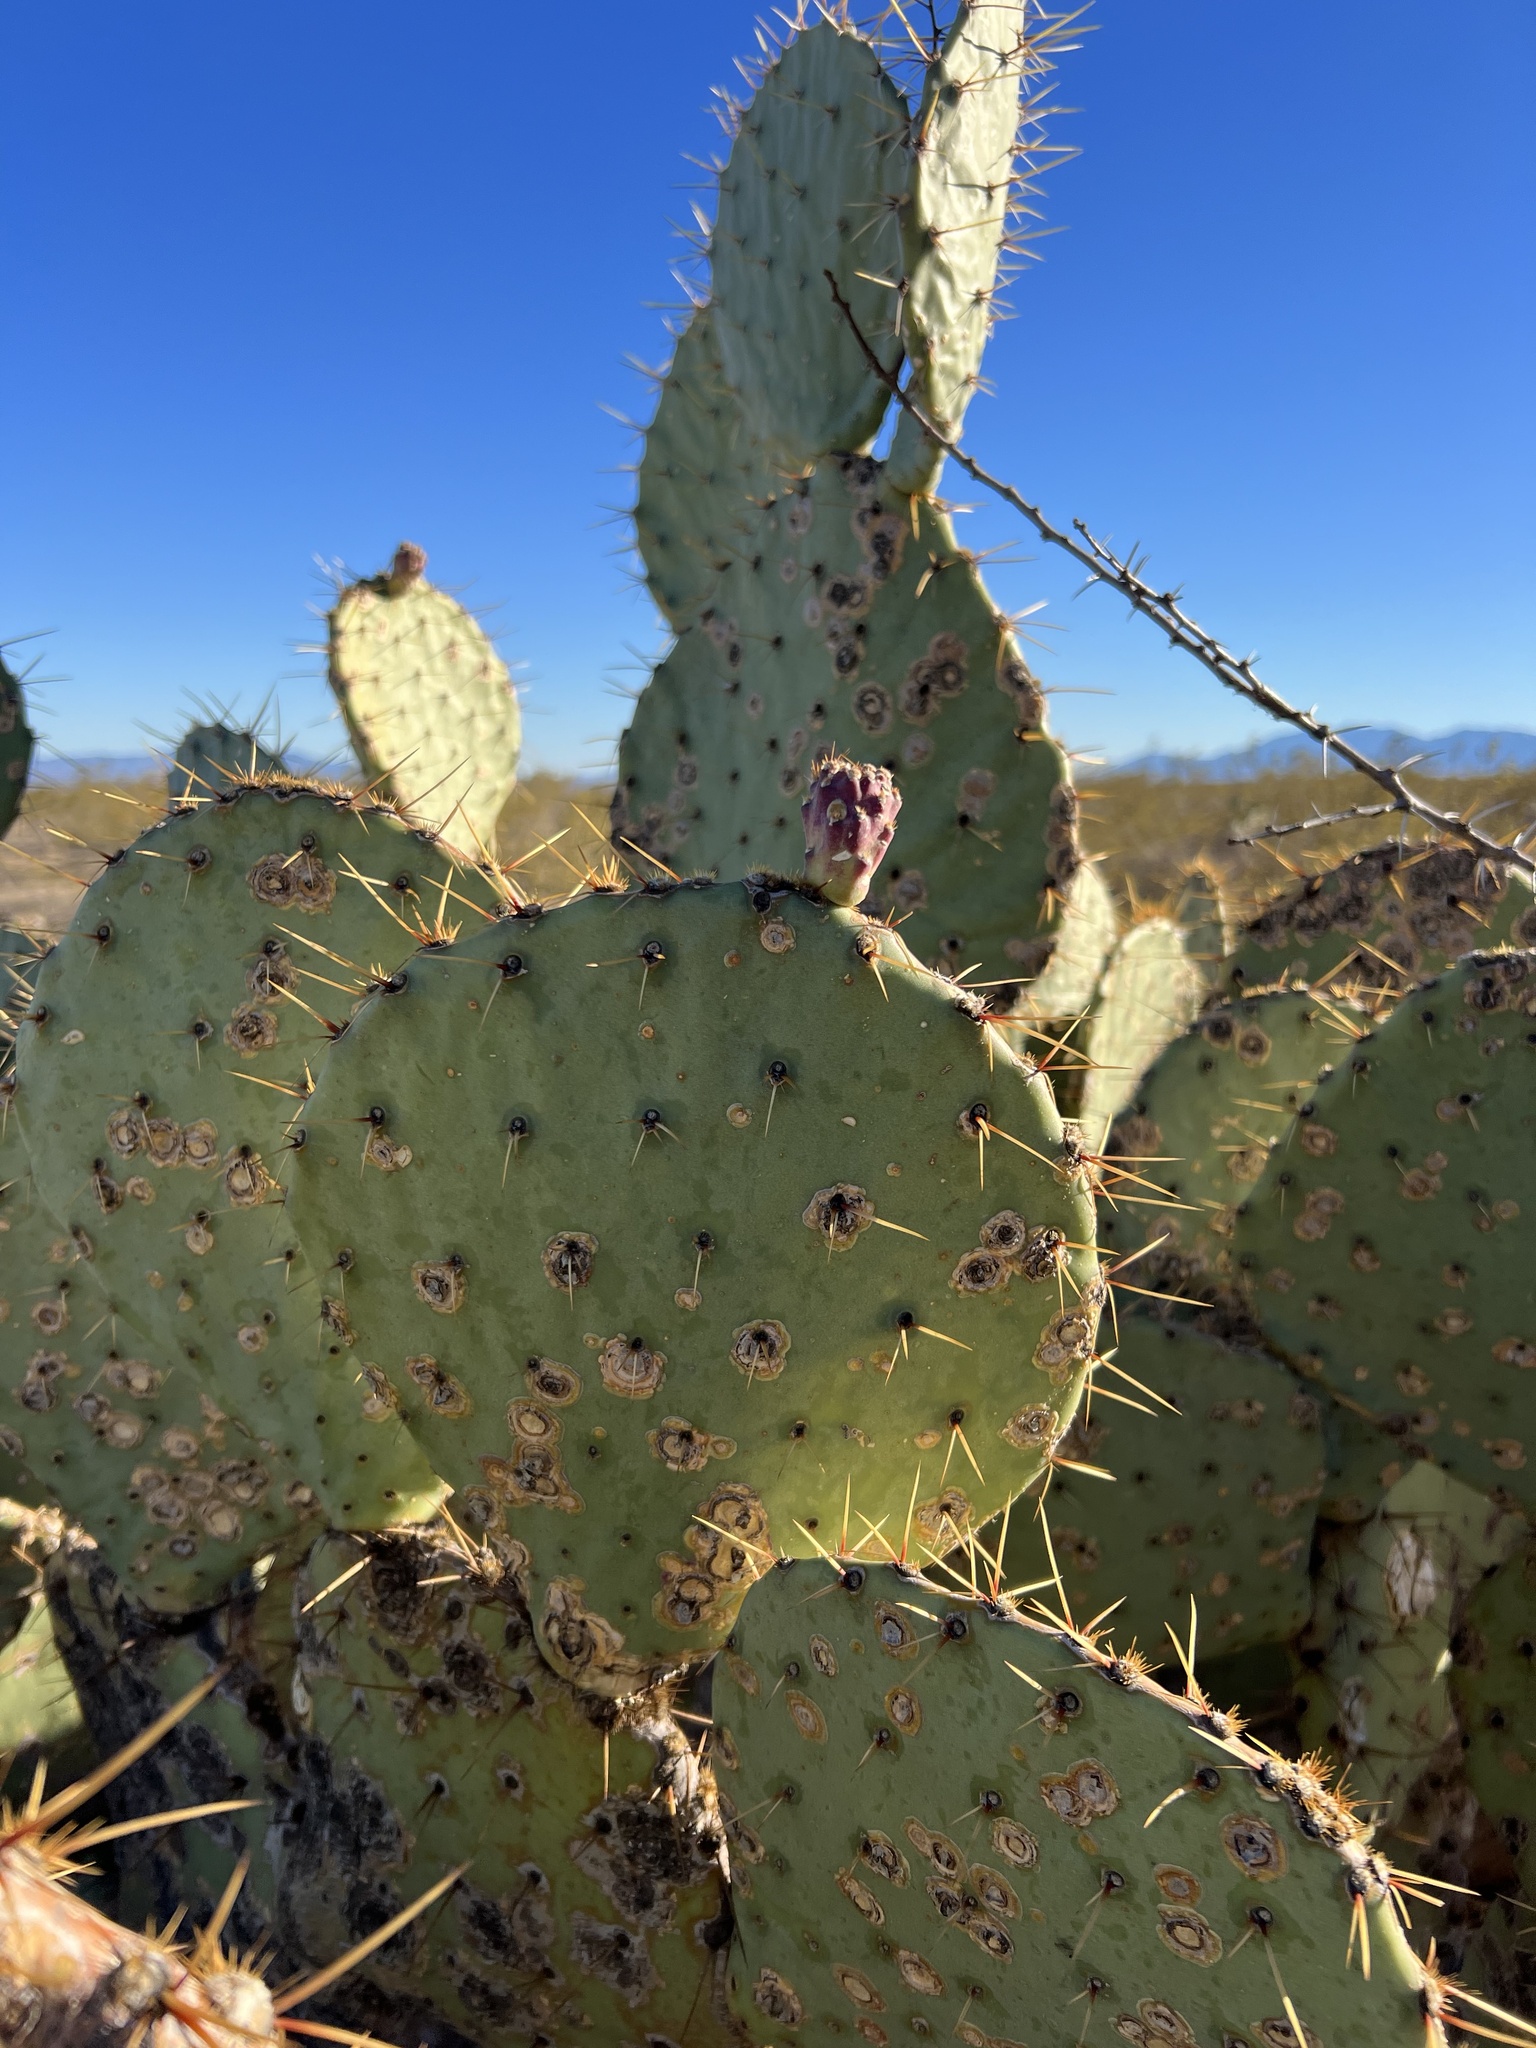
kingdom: Plantae
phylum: Tracheophyta
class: Magnoliopsida
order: Caryophyllales
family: Cactaceae
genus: Opuntia
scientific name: Opuntia engelmannii
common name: Cactus-apple
